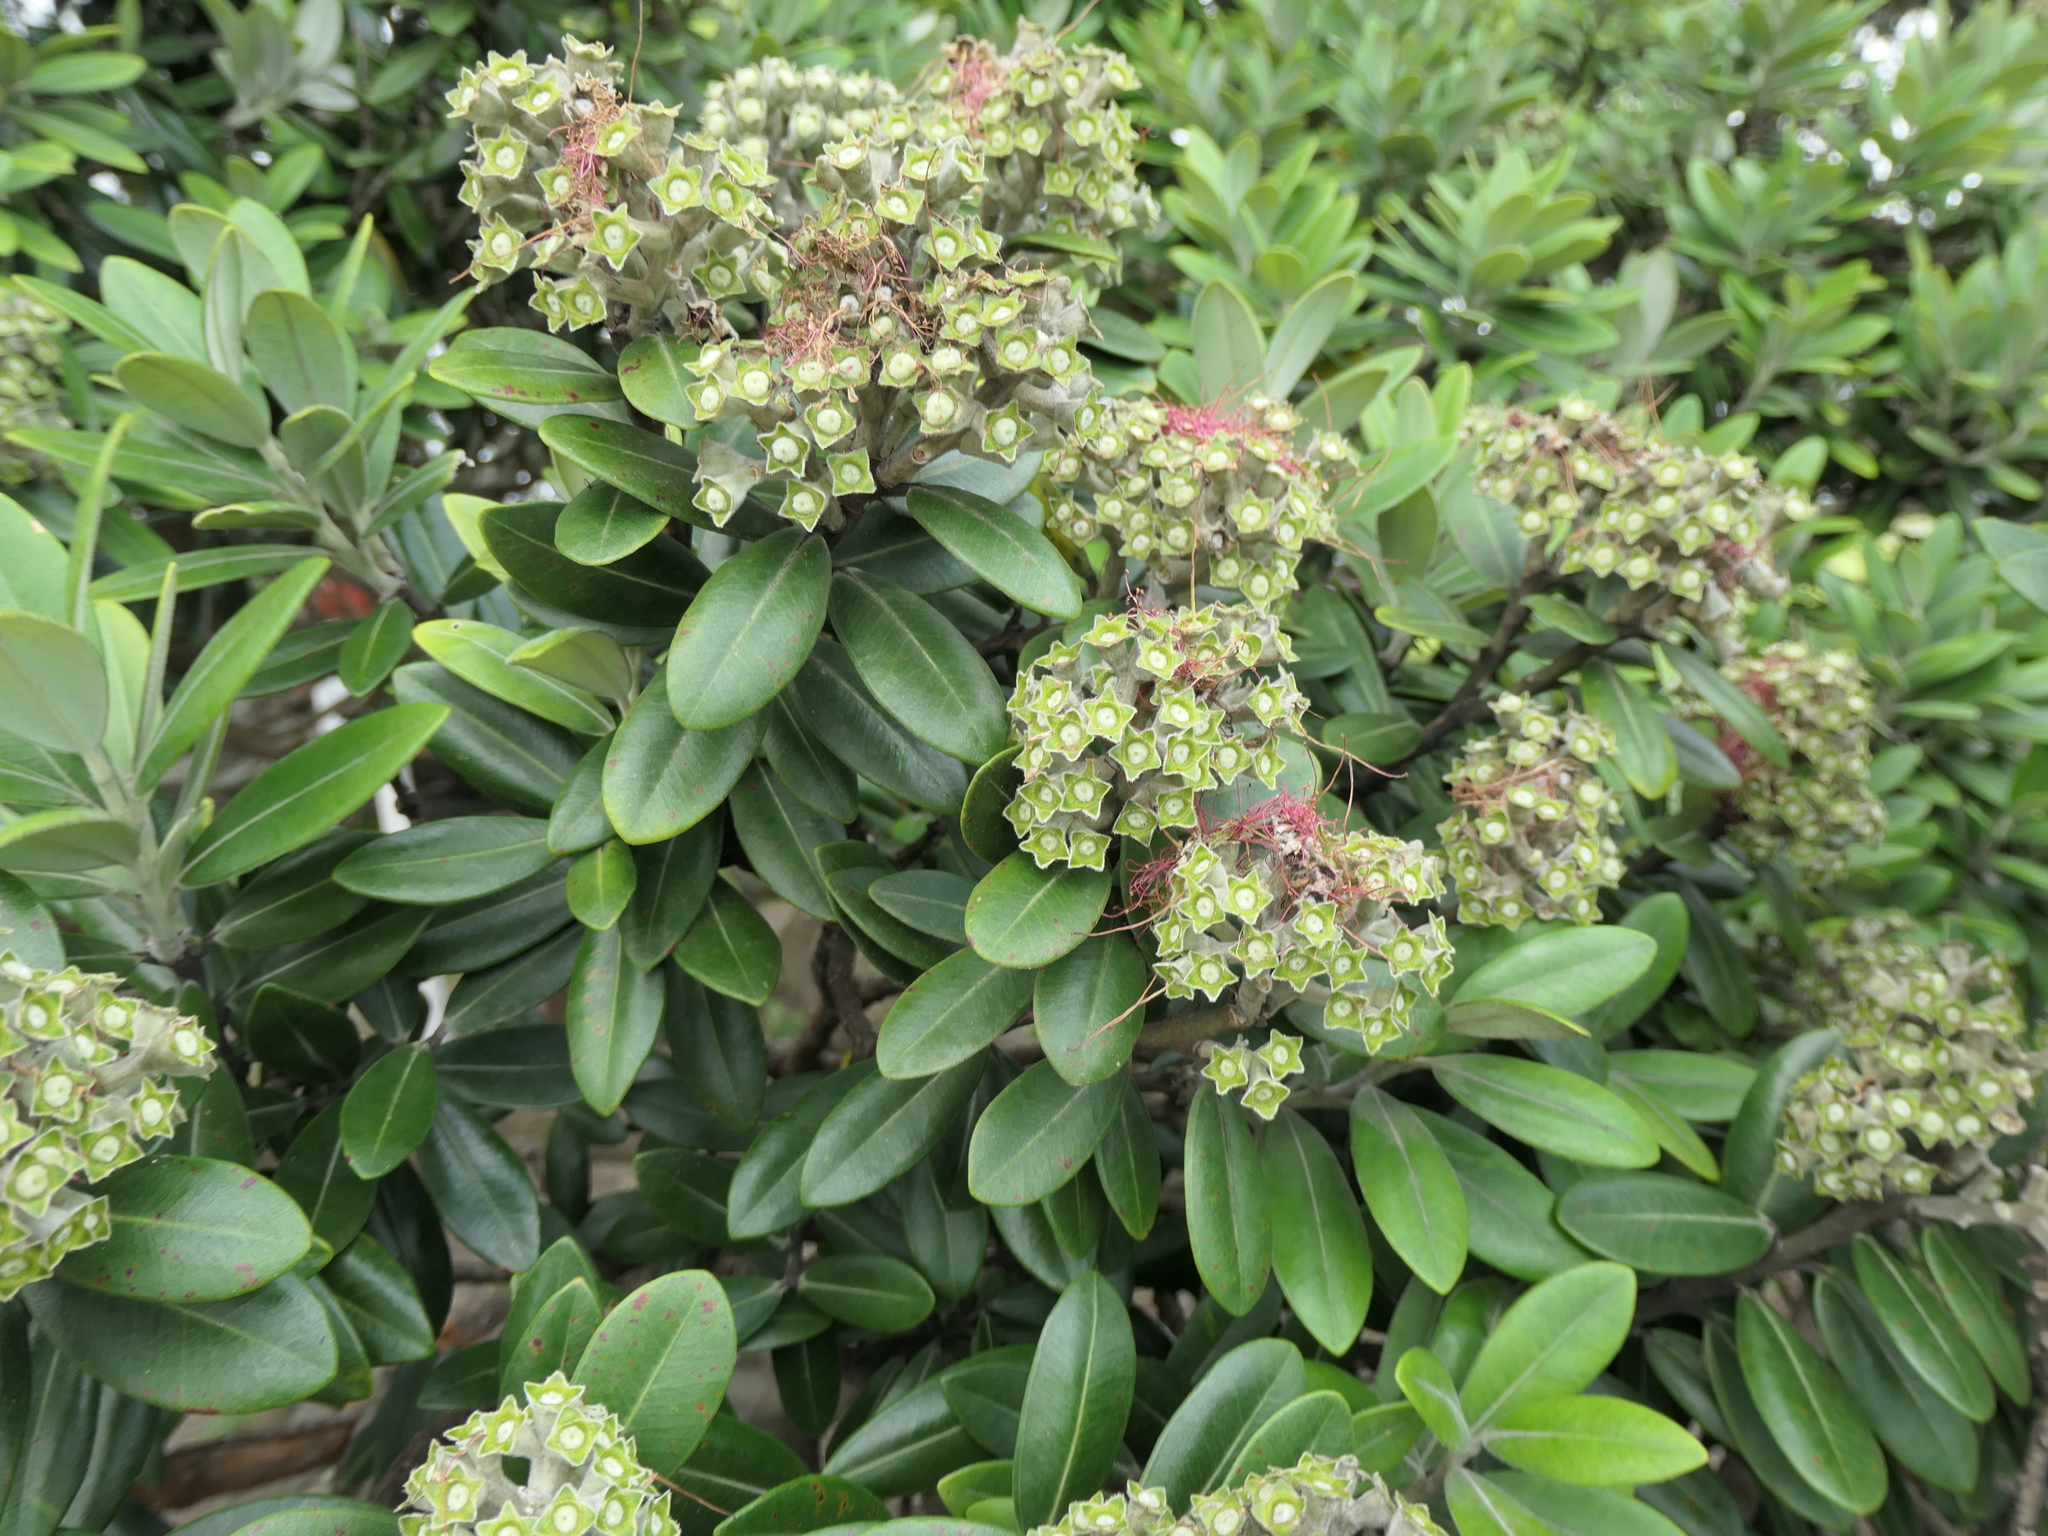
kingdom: Plantae
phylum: Tracheophyta
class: Magnoliopsida
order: Myrtales
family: Myrtaceae
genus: Metrosideros
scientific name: Metrosideros excelsa
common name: New zealand christmastree
